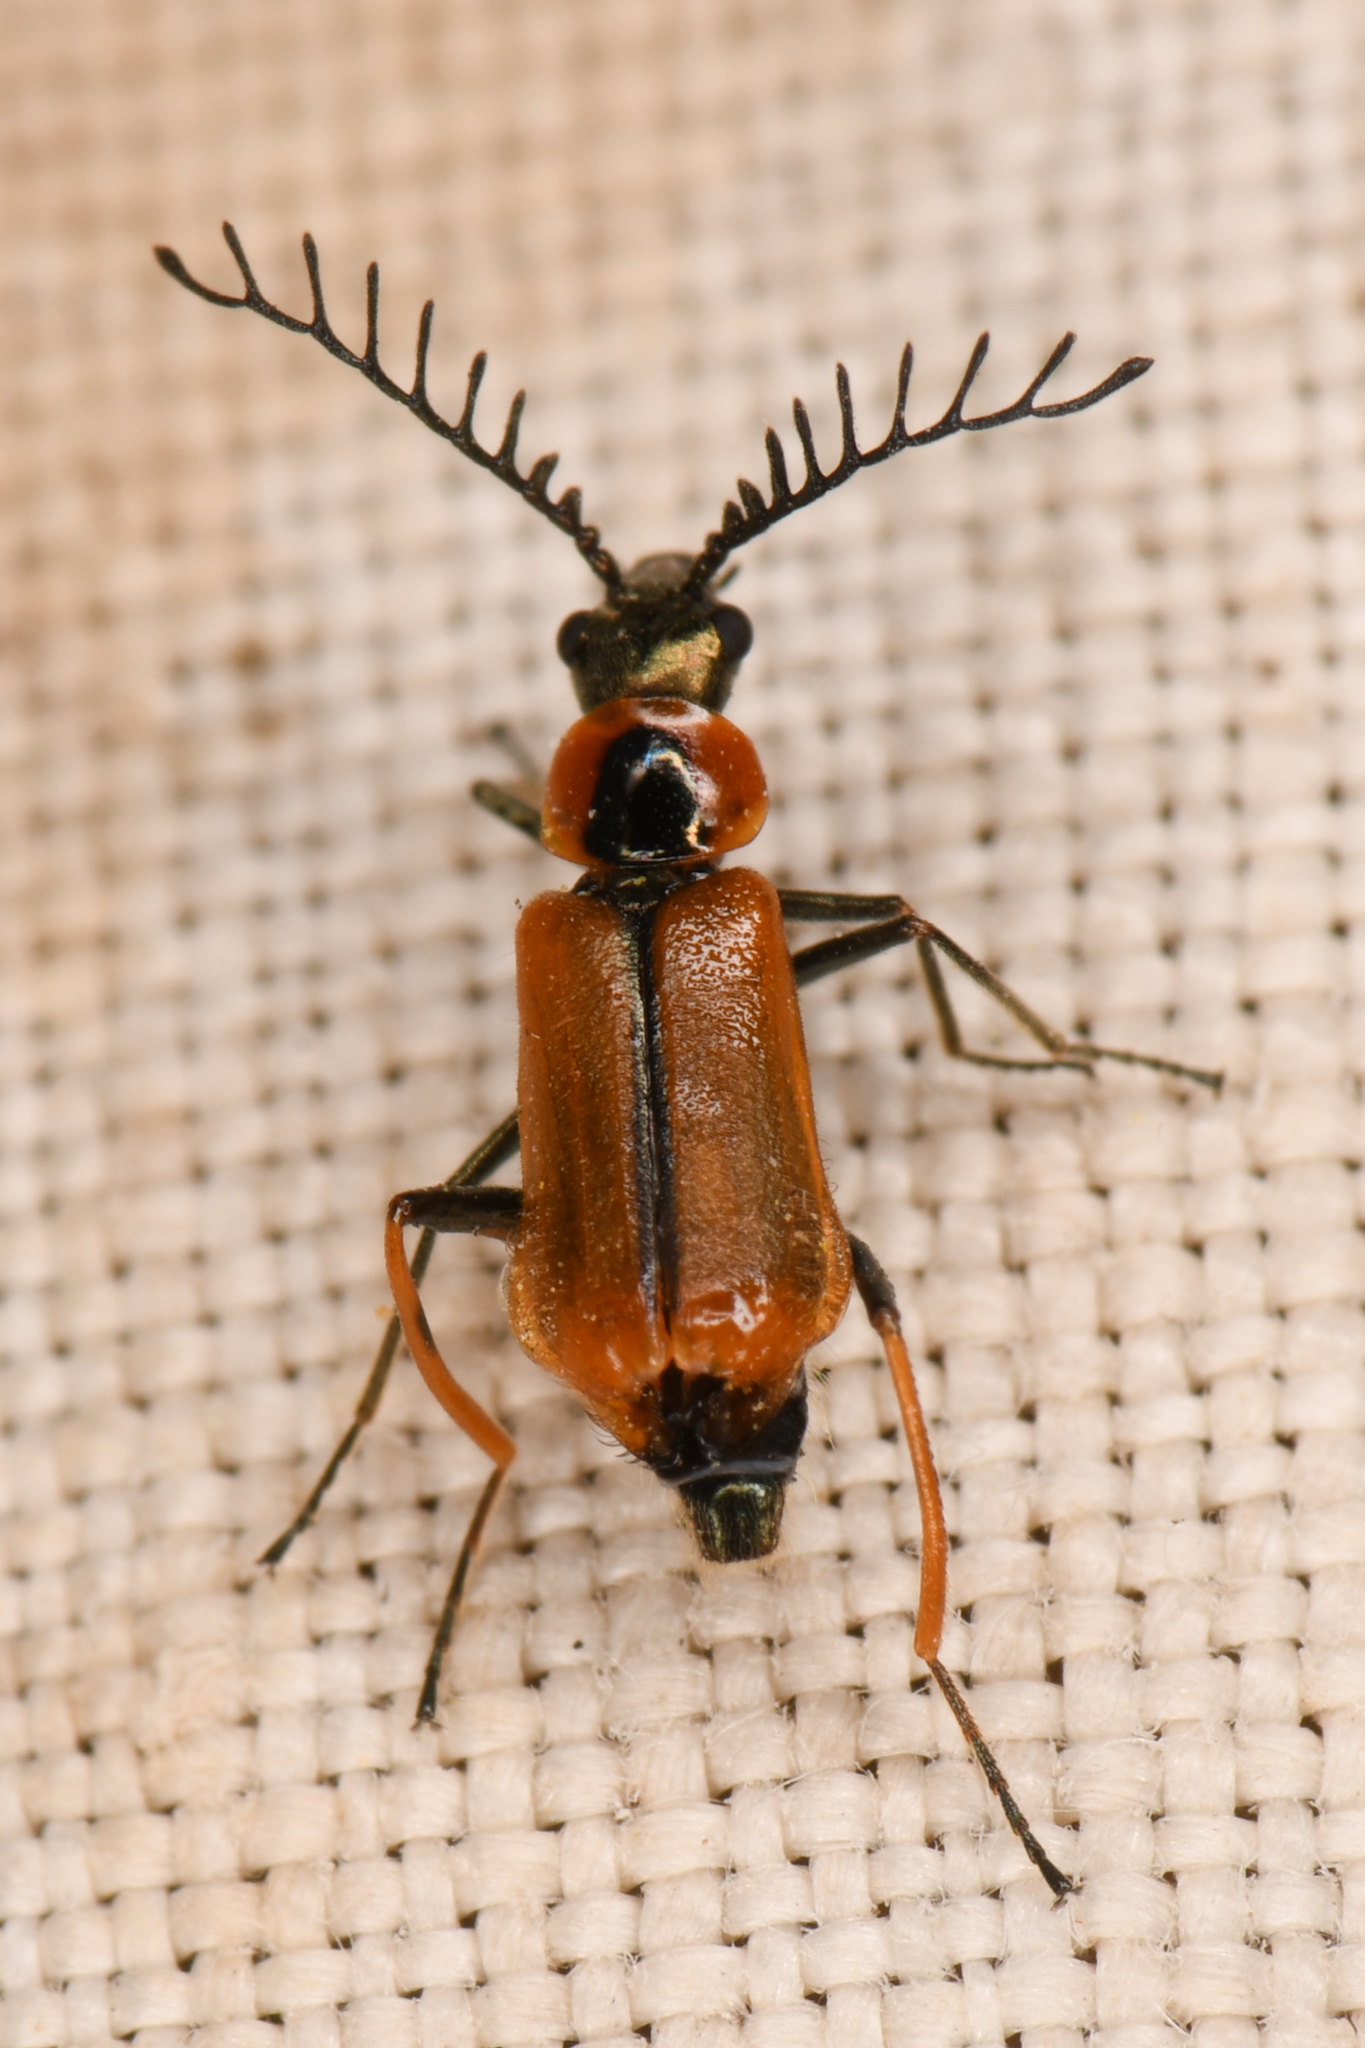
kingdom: Animalia
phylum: Arthropoda
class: Insecta
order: Coleoptera
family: Melyridae
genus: Malachius
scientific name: Malachius mirandus
